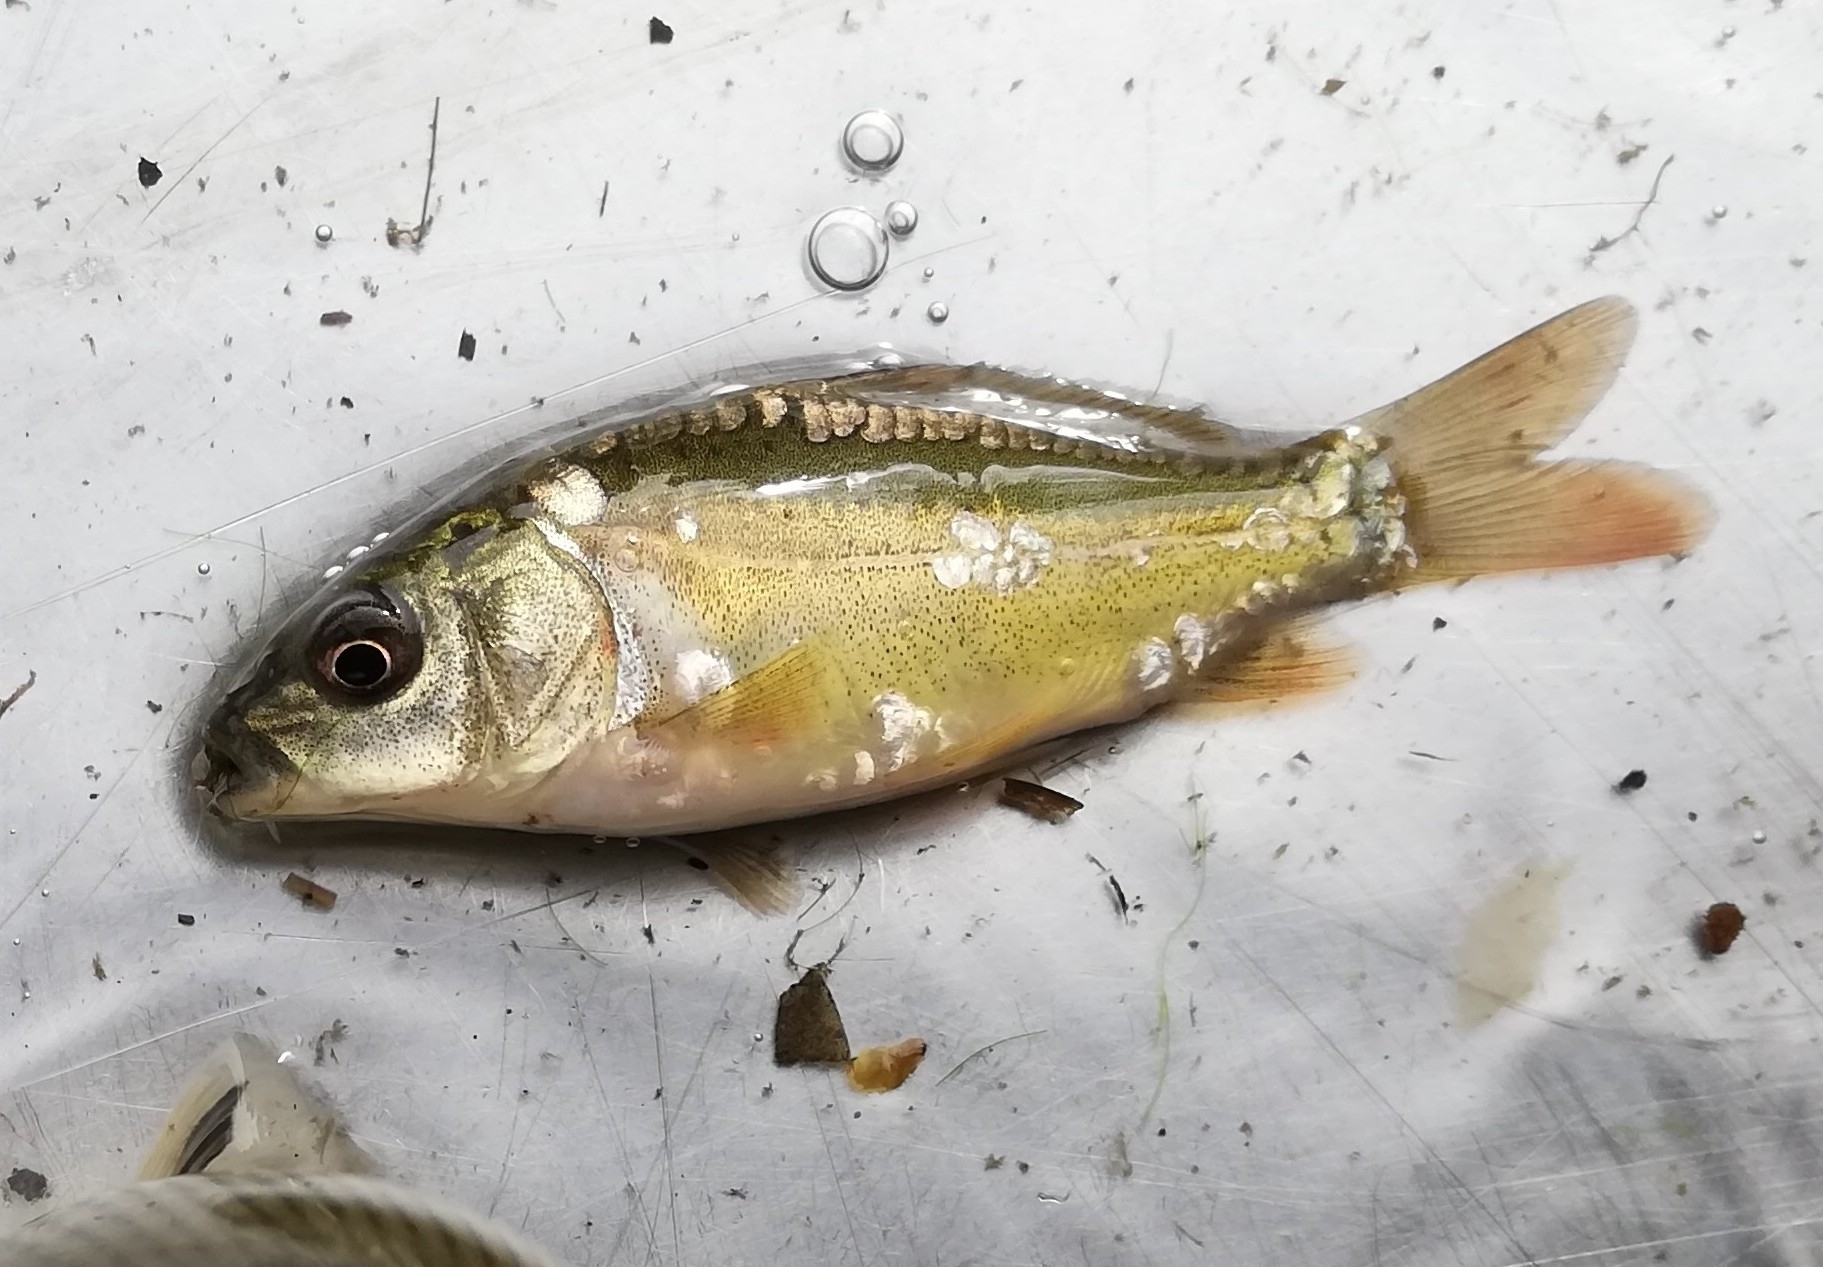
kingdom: Animalia
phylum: Chordata
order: Cypriniformes
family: Cyprinidae
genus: Cyprinus
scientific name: Cyprinus carpio
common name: Common carp
